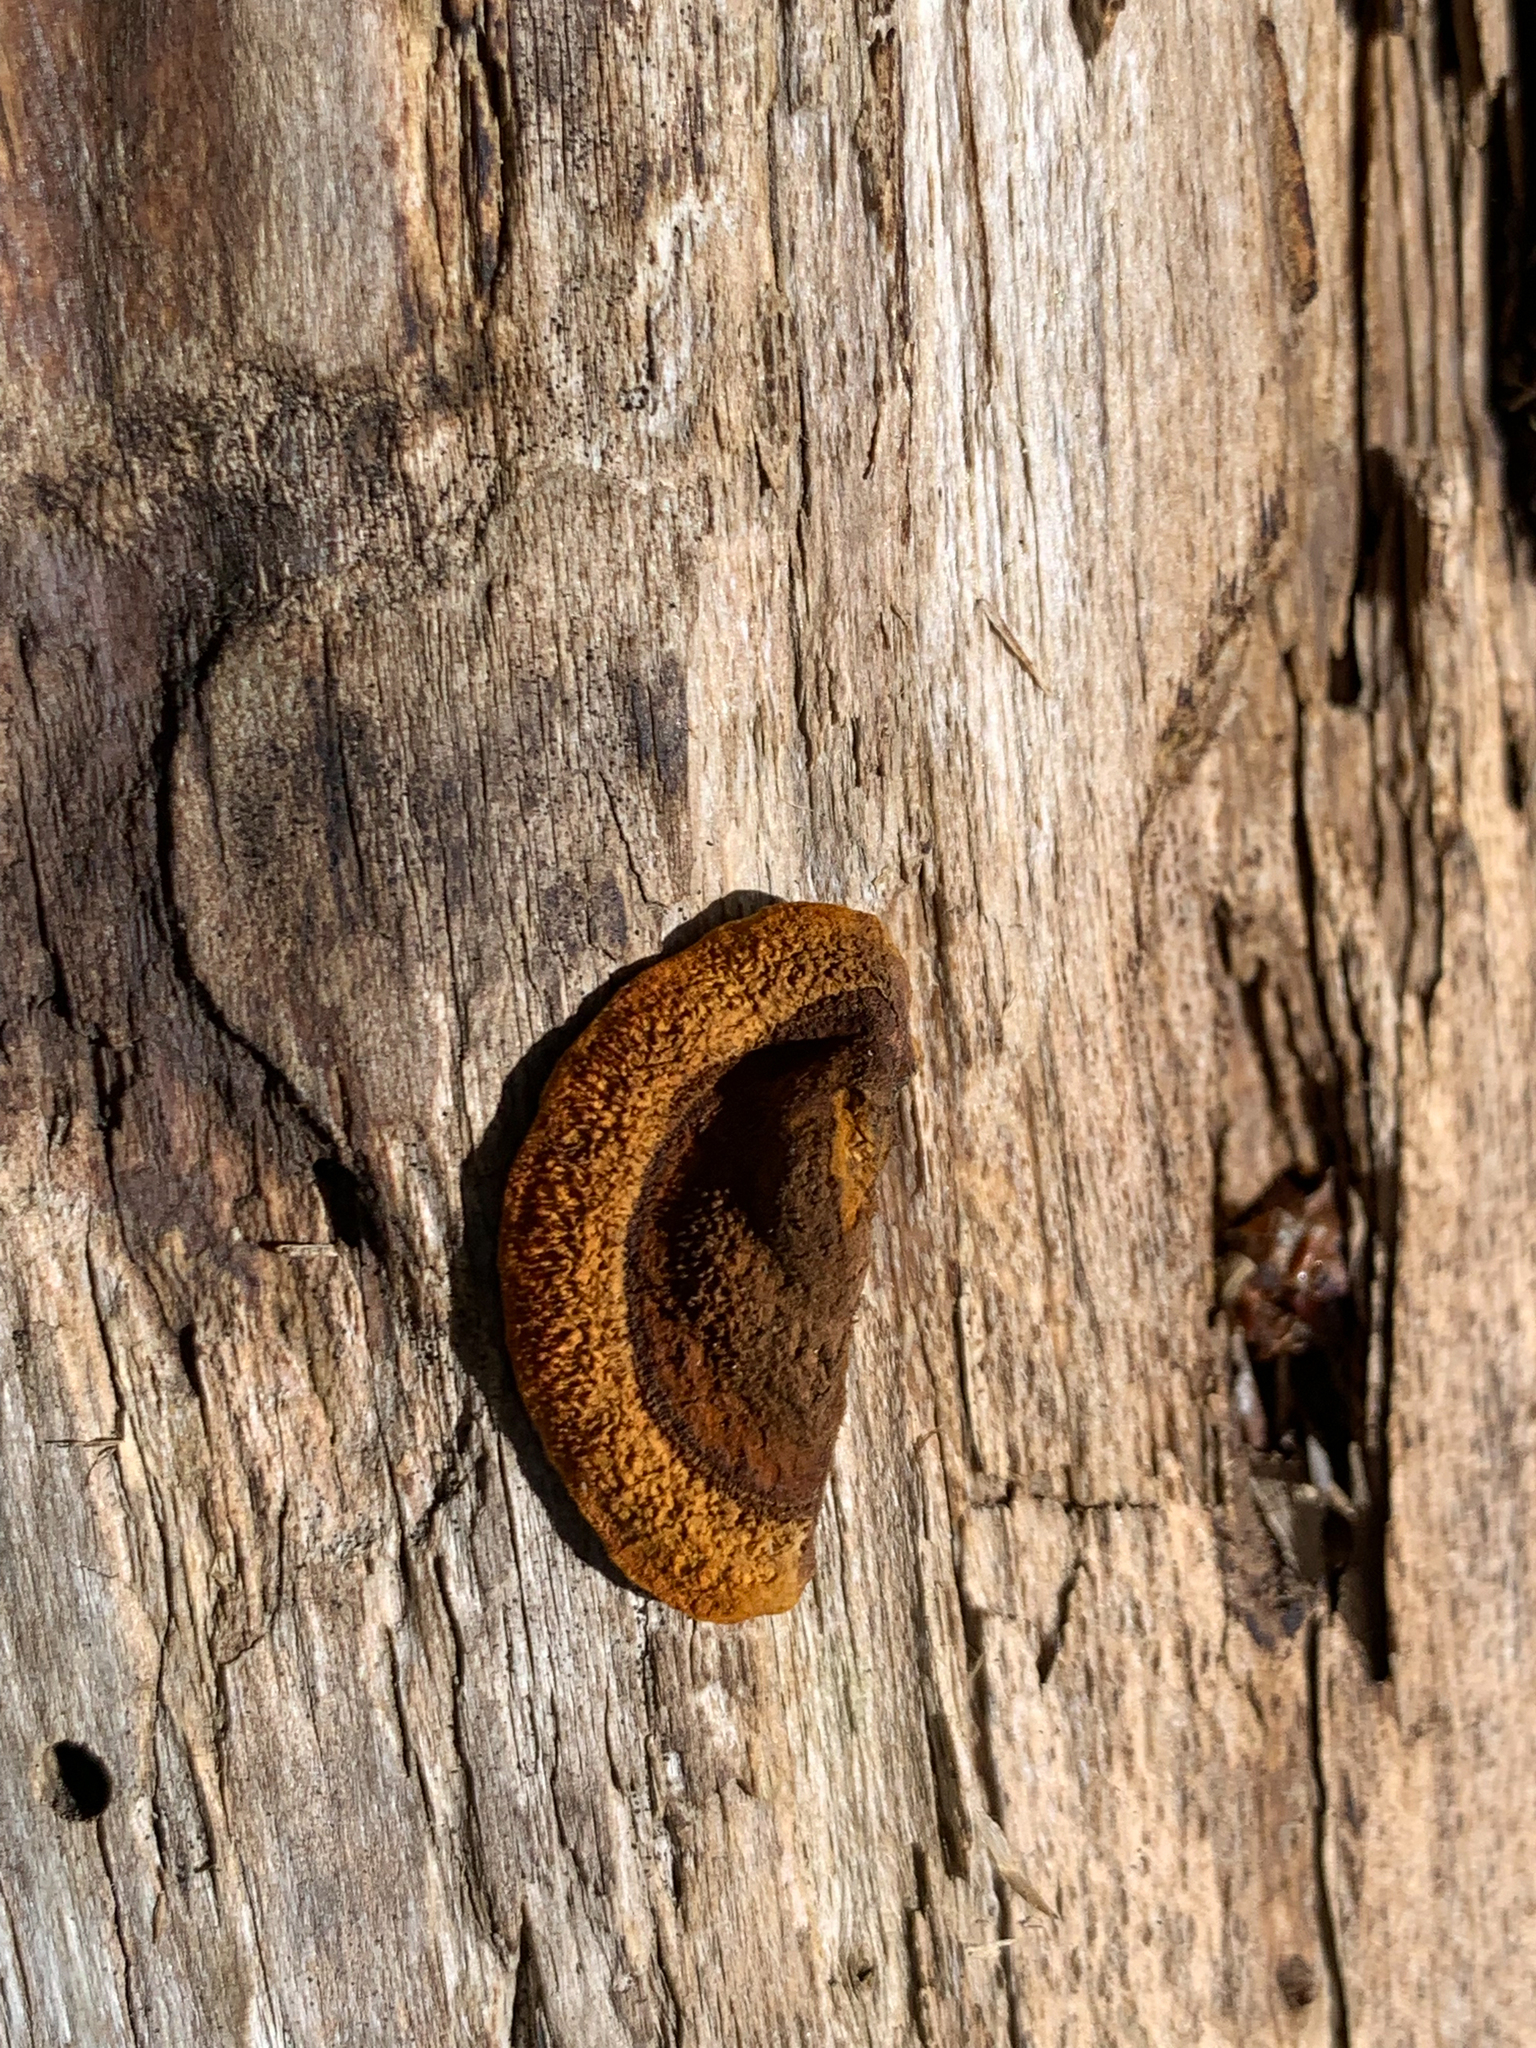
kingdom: Fungi
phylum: Basidiomycota
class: Agaricomycetes
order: Gloeophyllales
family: Gloeophyllaceae
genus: Gloeophyllum
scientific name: Gloeophyllum sepiarium
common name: Conifer mazegill
